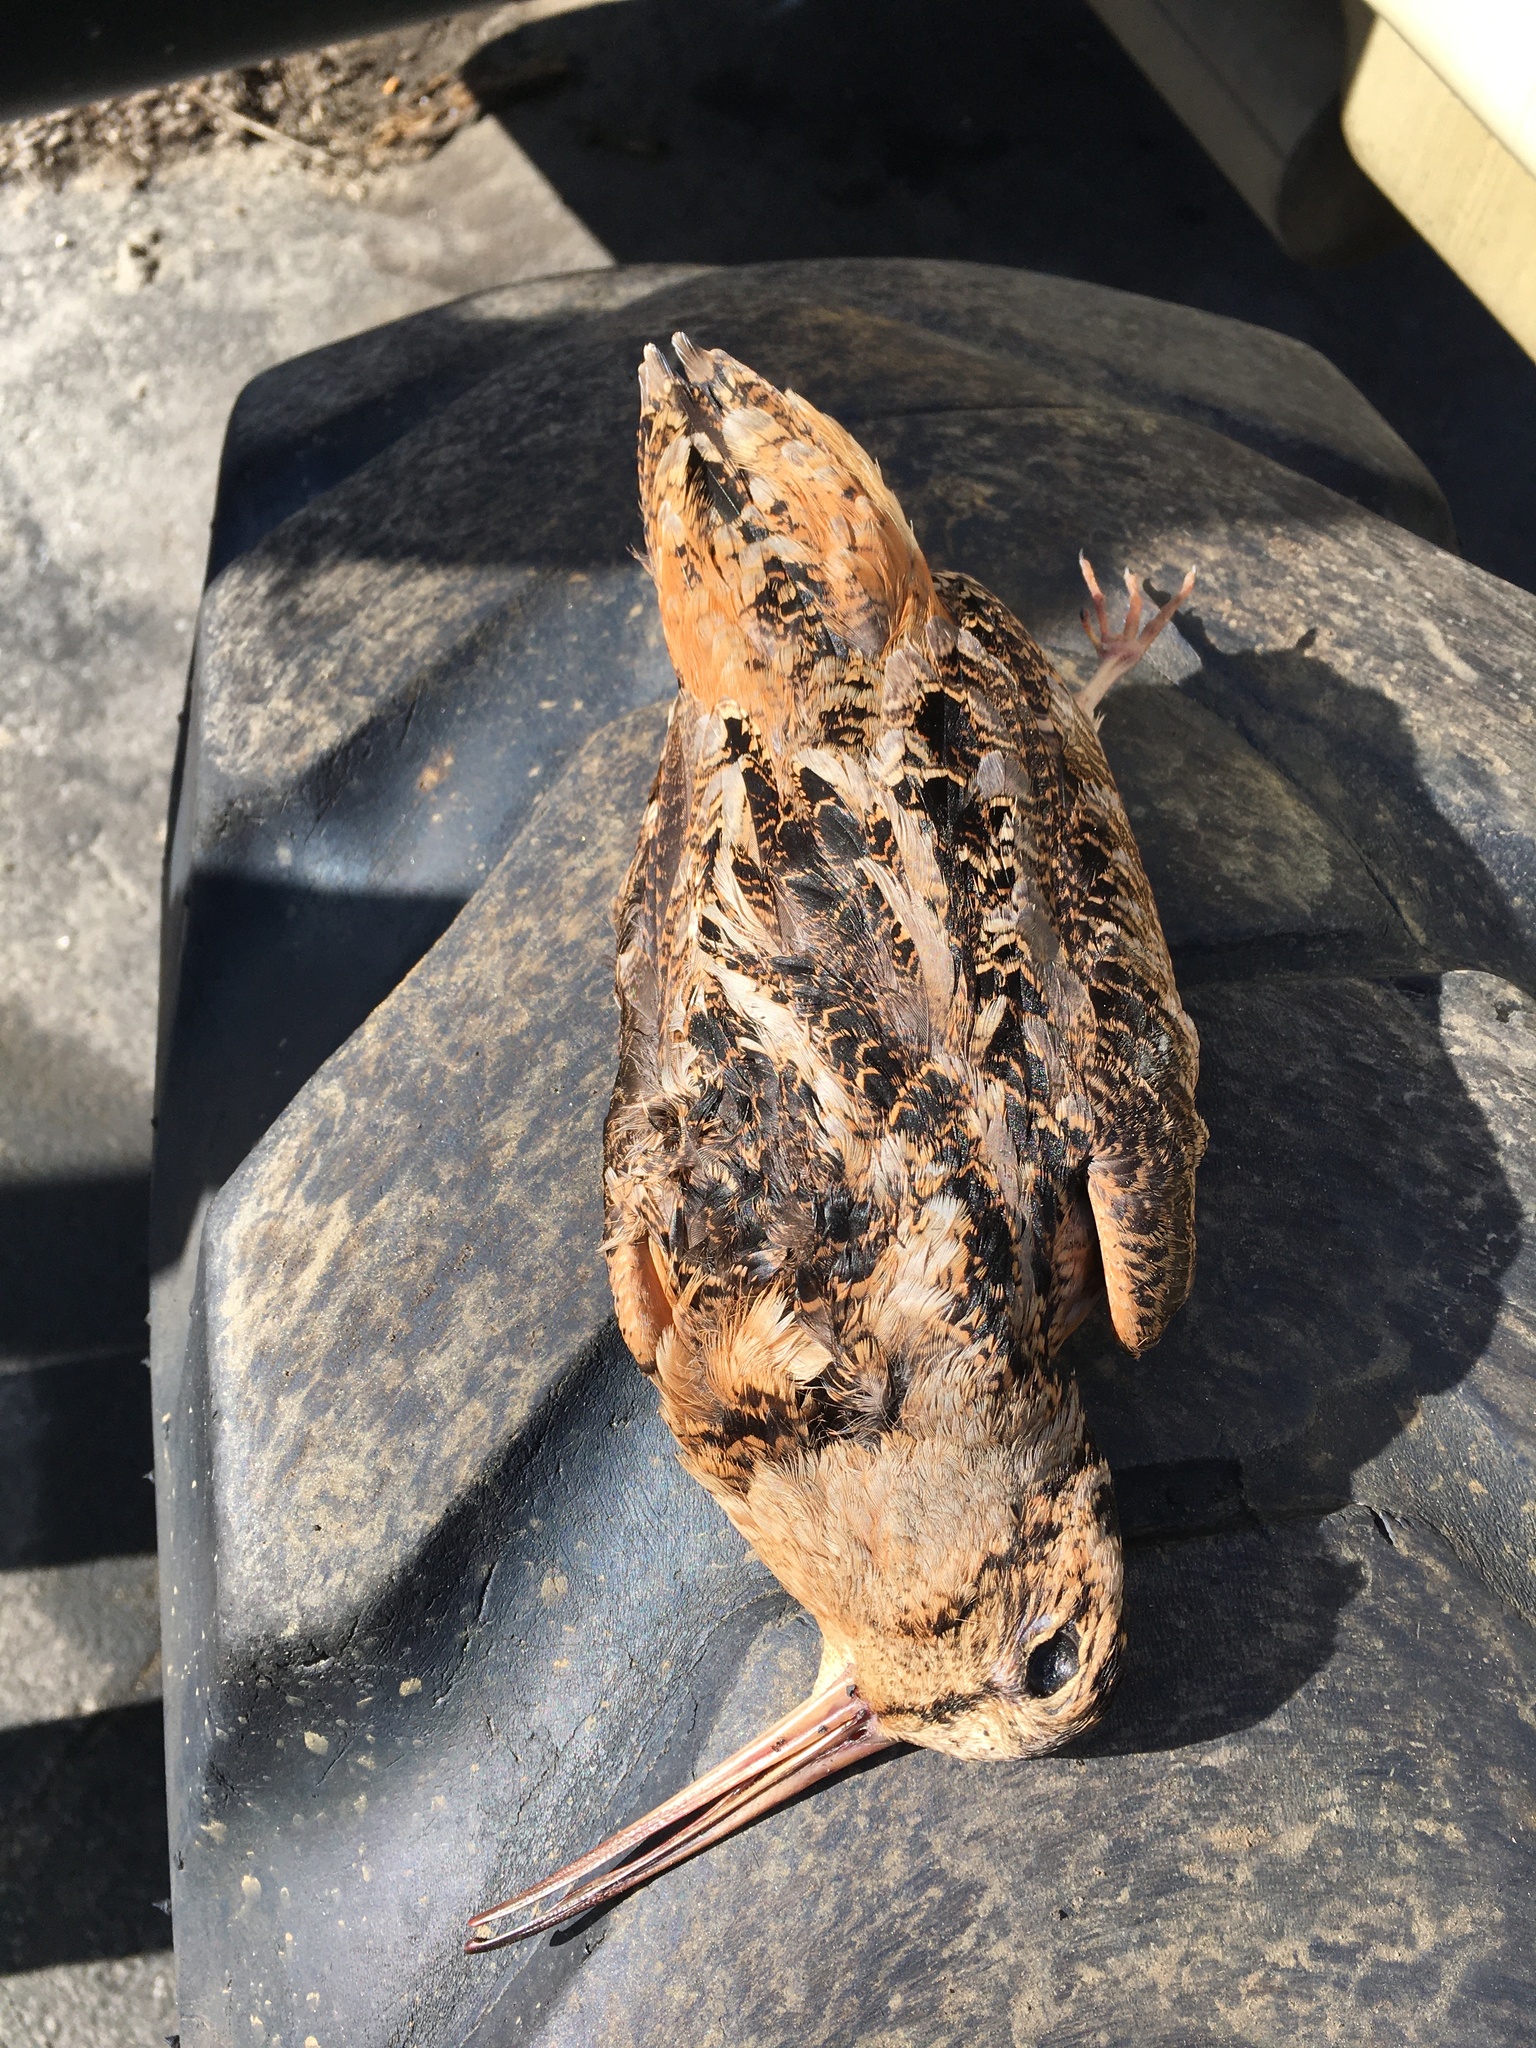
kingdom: Animalia
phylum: Chordata
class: Aves
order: Charadriiformes
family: Scolopacidae
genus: Scolopax
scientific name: Scolopax minor
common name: American woodcock
